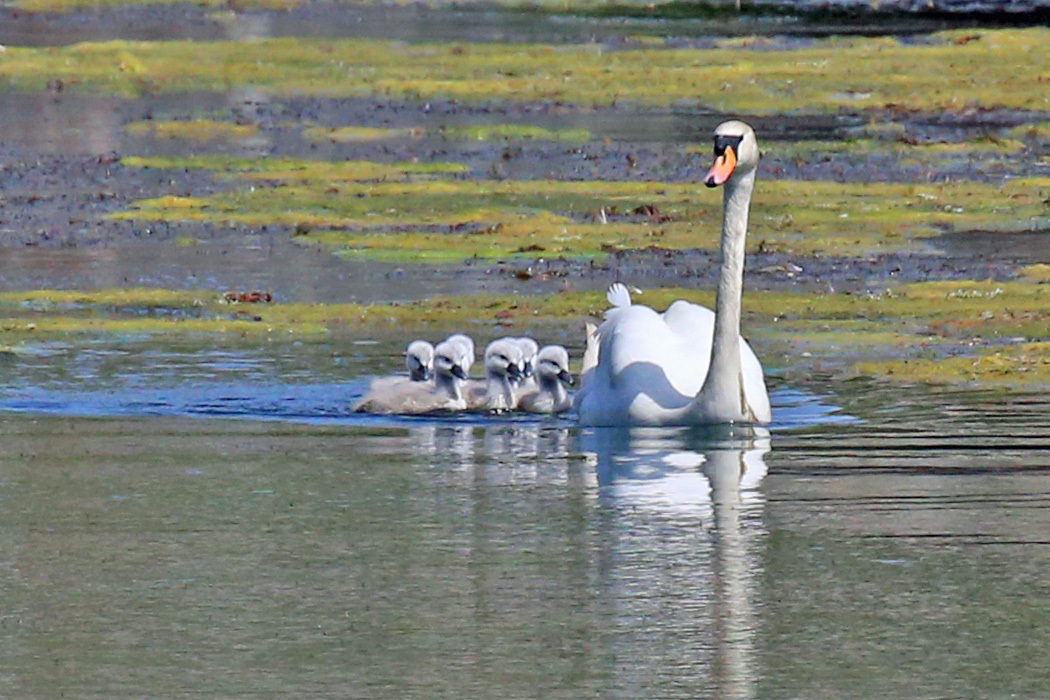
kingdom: Animalia
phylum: Chordata
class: Aves
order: Anseriformes
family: Anatidae
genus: Cygnus
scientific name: Cygnus olor
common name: Mute swan
